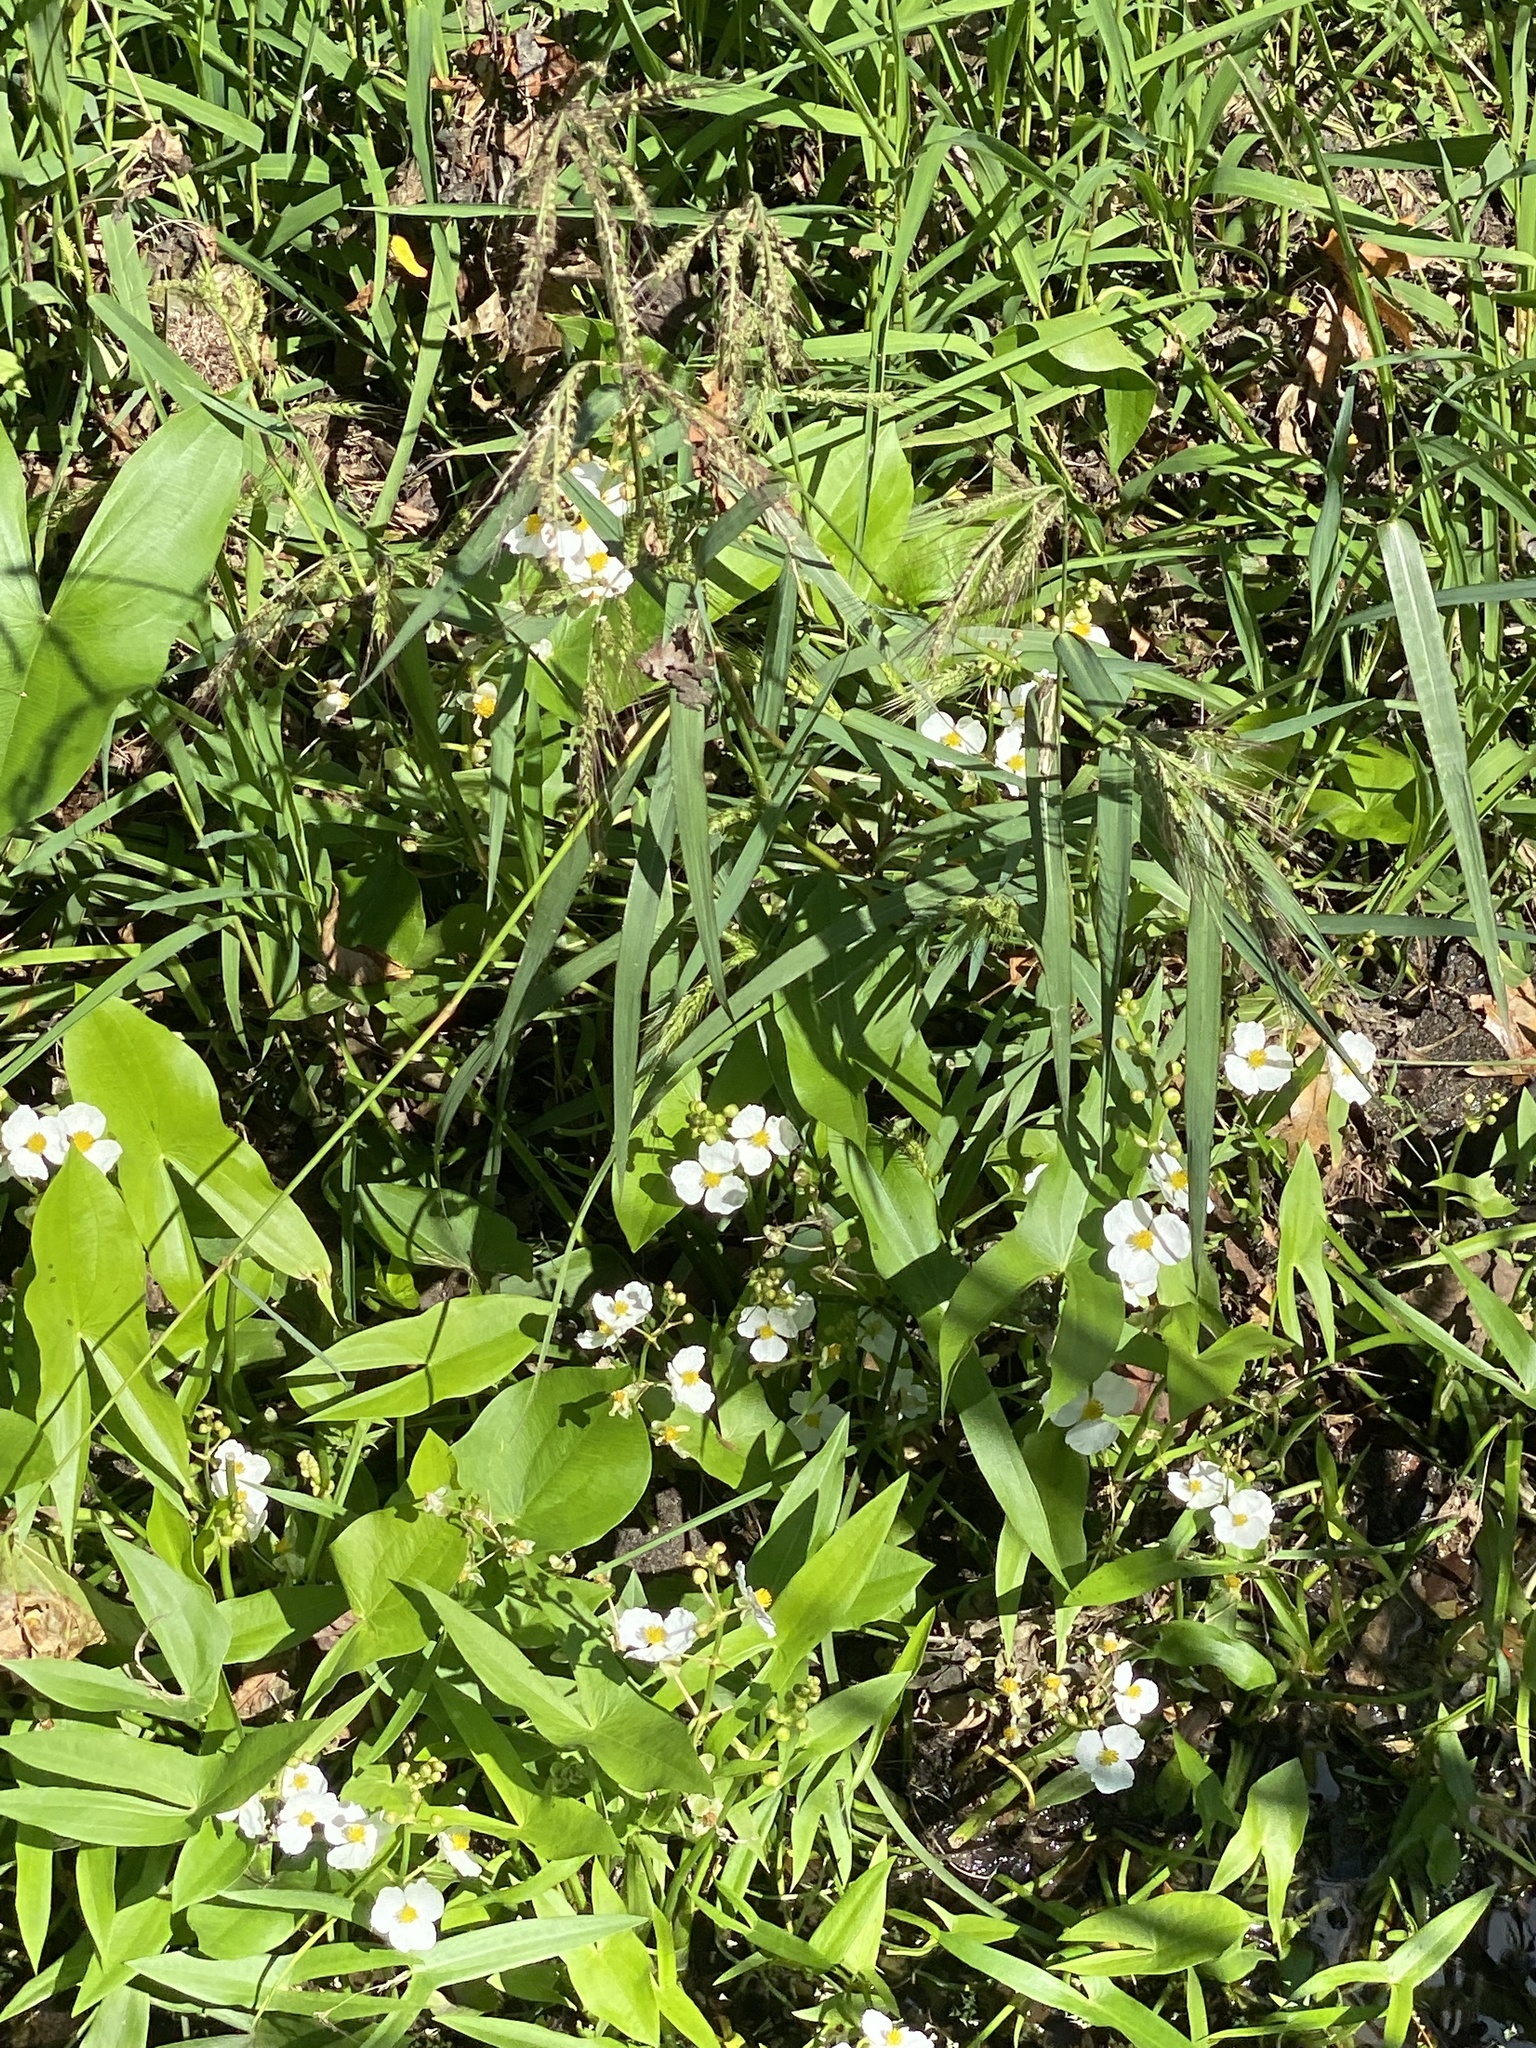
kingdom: Plantae
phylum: Tracheophyta
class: Liliopsida
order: Alismatales
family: Alismataceae
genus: Sagittaria
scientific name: Sagittaria latifolia
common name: Duck-potato
